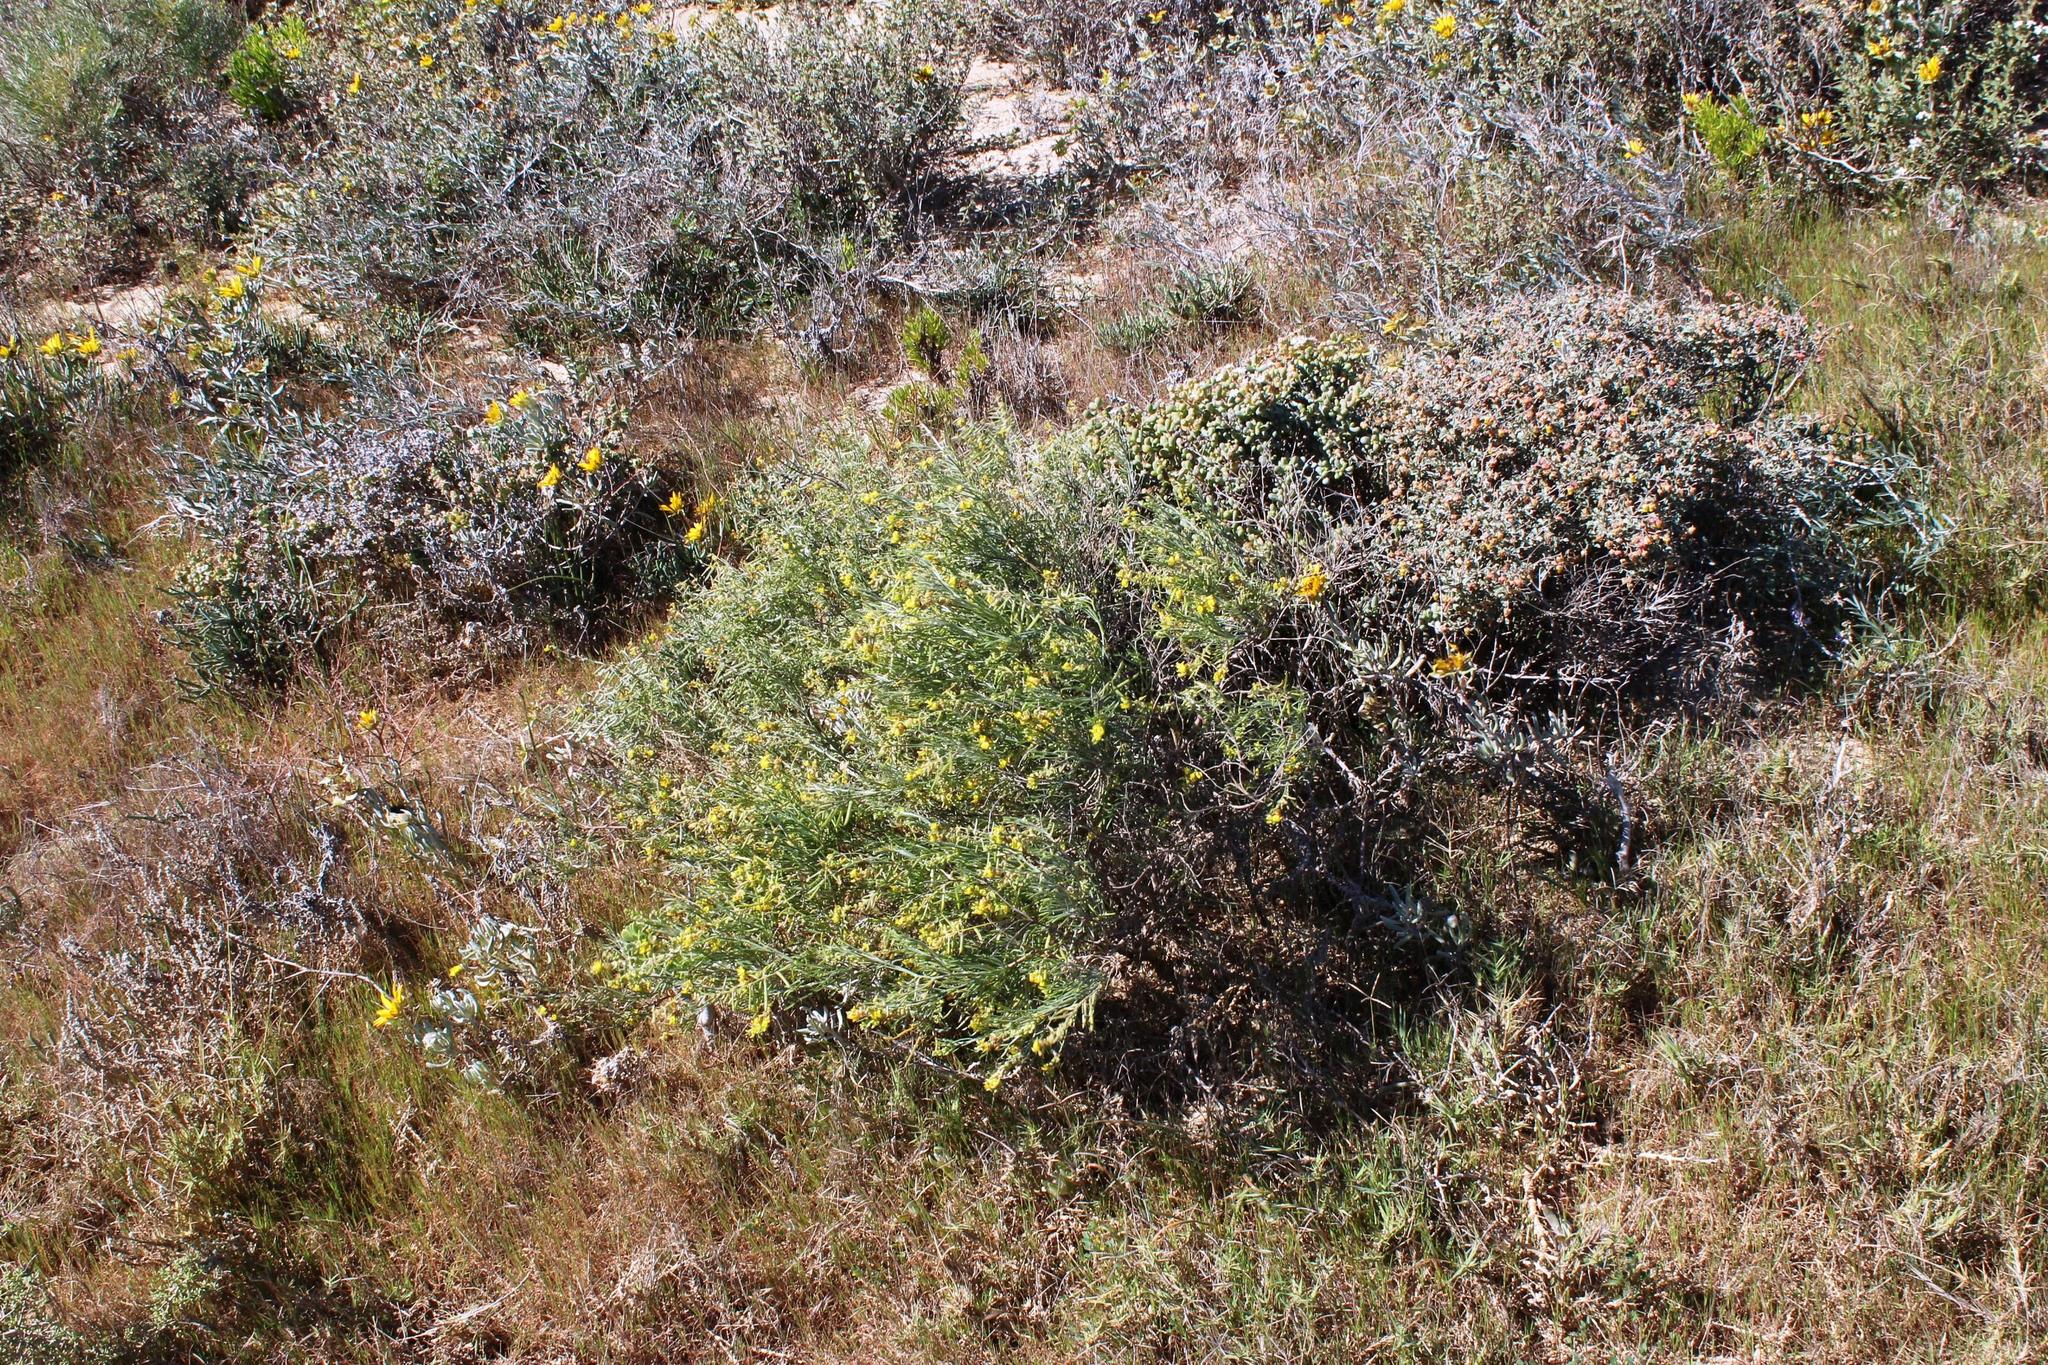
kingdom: Plantae
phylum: Tracheophyta
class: Magnoliopsida
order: Fabales
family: Fabaceae
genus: Calobota
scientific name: Calobota halenbergensis
